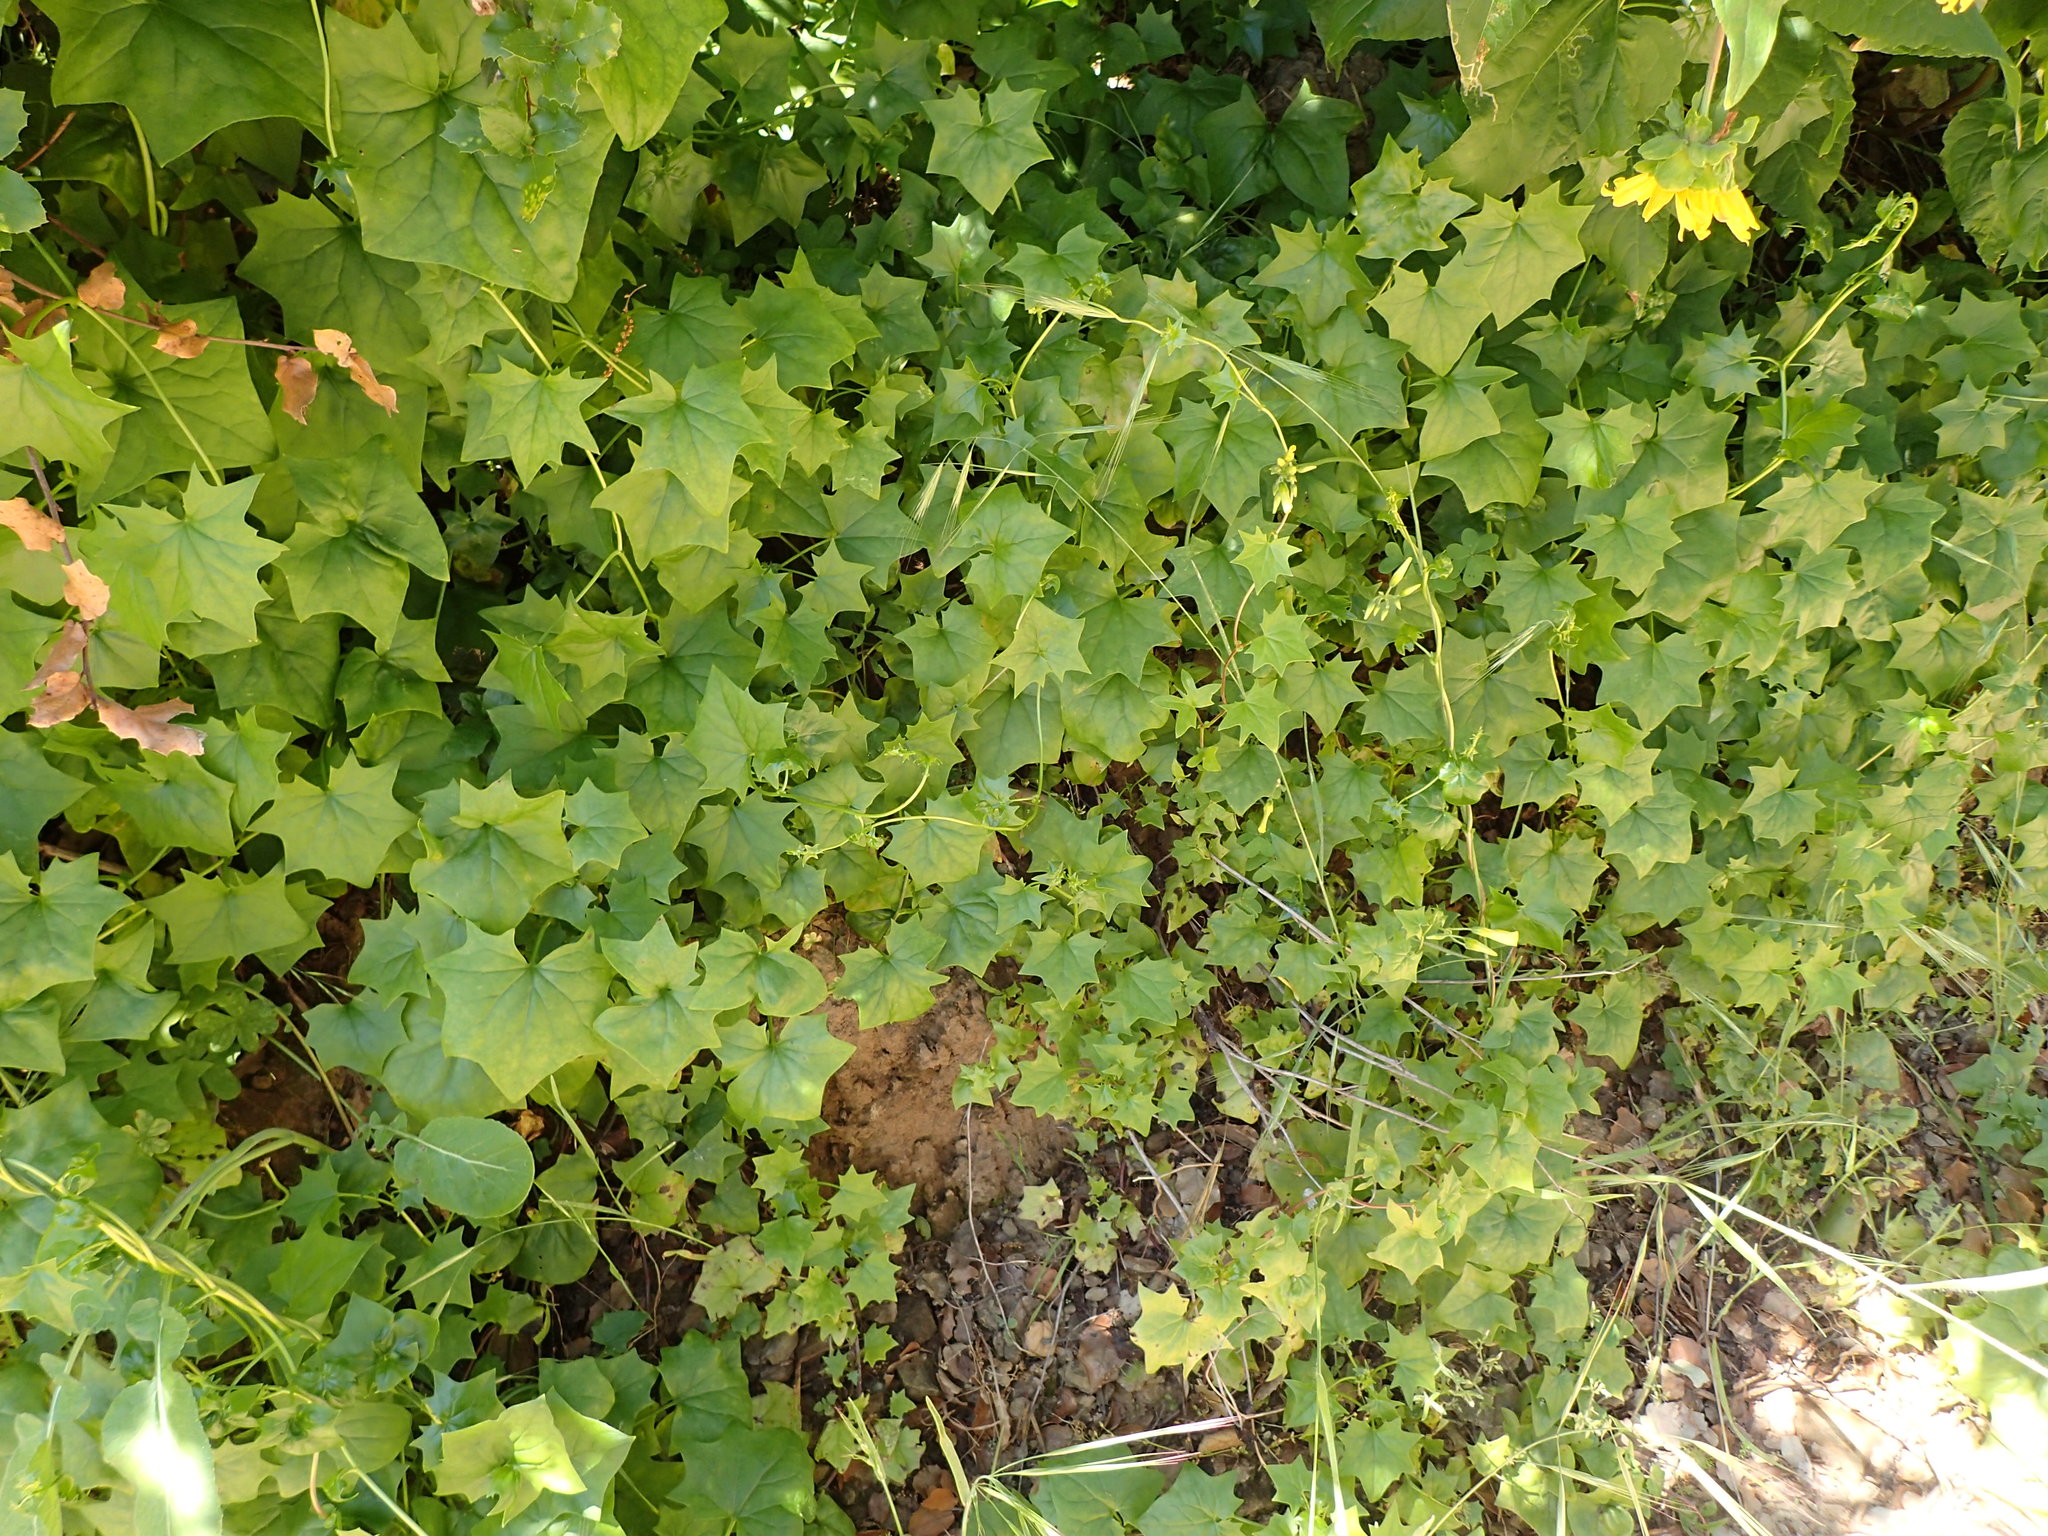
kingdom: Plantae
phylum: Tracheophyta
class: Magnoliopsida
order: Asterales
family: Asteraceae
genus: Delairea
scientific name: Delairea odorata
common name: Cape-ivy
